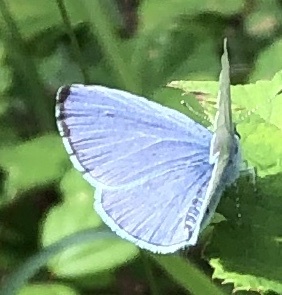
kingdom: Animalia
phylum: Arthropoda
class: Insecta
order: Lepidoptera
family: Lycaenidae
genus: Celastrina
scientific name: Celastrina argiolus
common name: Holly blue
